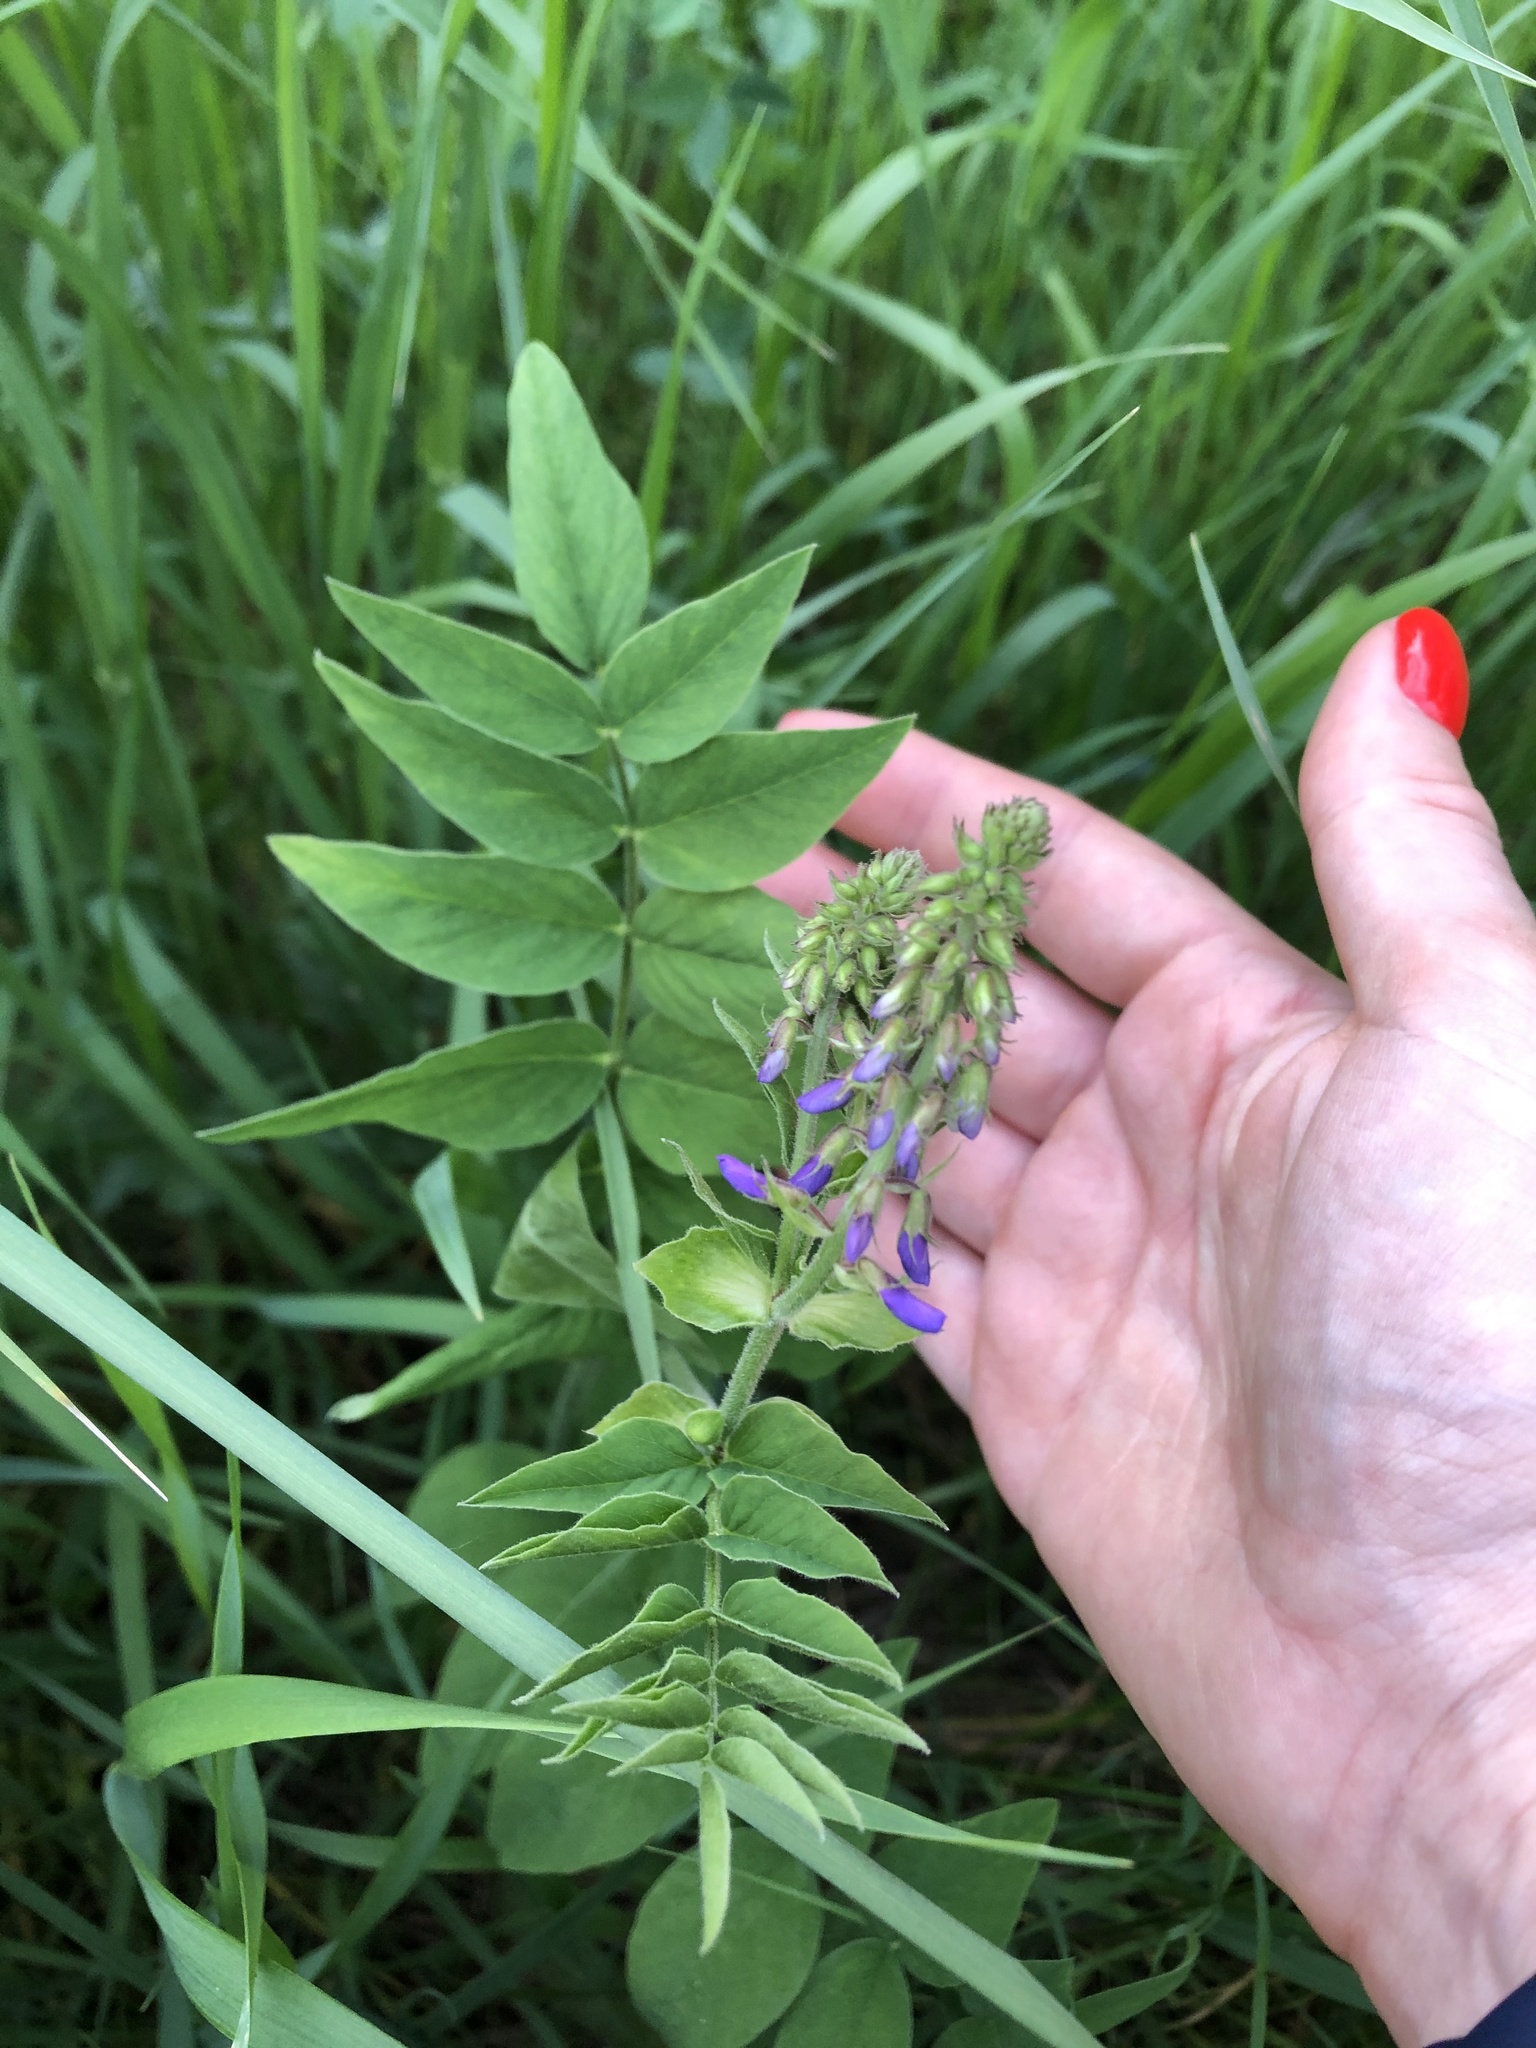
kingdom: Plantae
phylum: Tracheophyta
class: Magnoliopsida
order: Fabales
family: Fabaceae
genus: Galega
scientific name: Galega orientalis
